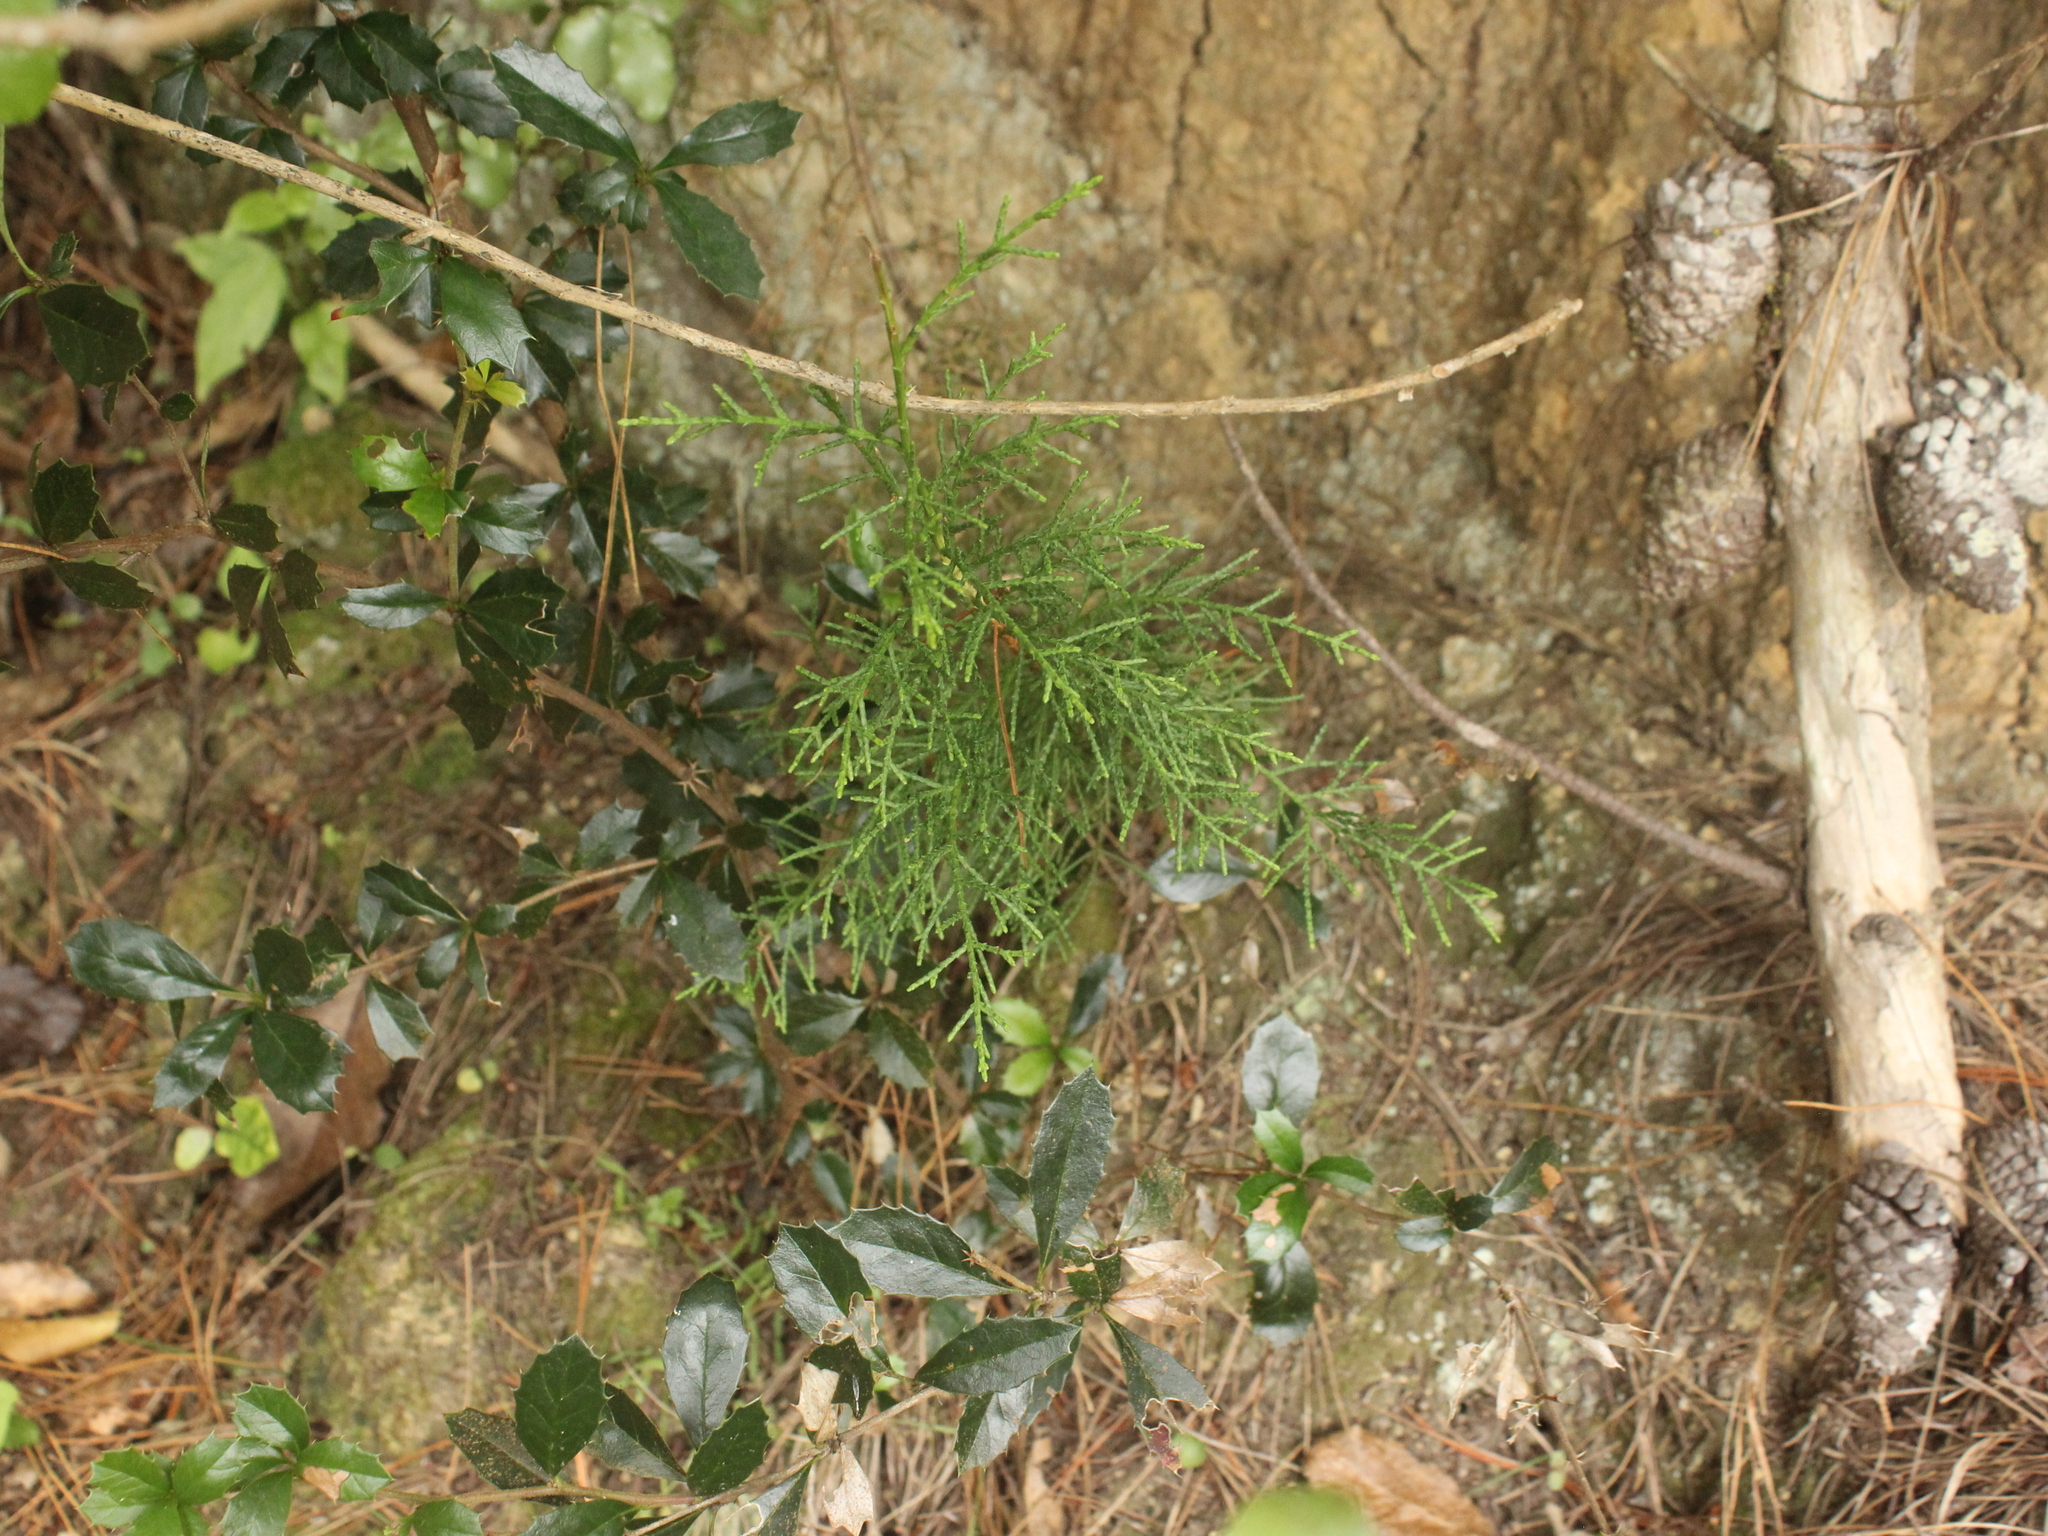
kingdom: Plantae
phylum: Tracheophyta
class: Pinopsida
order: Pinales
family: Cupressaceae
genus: Cupressus
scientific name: Cupressus arizonica
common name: Arizona cypress
